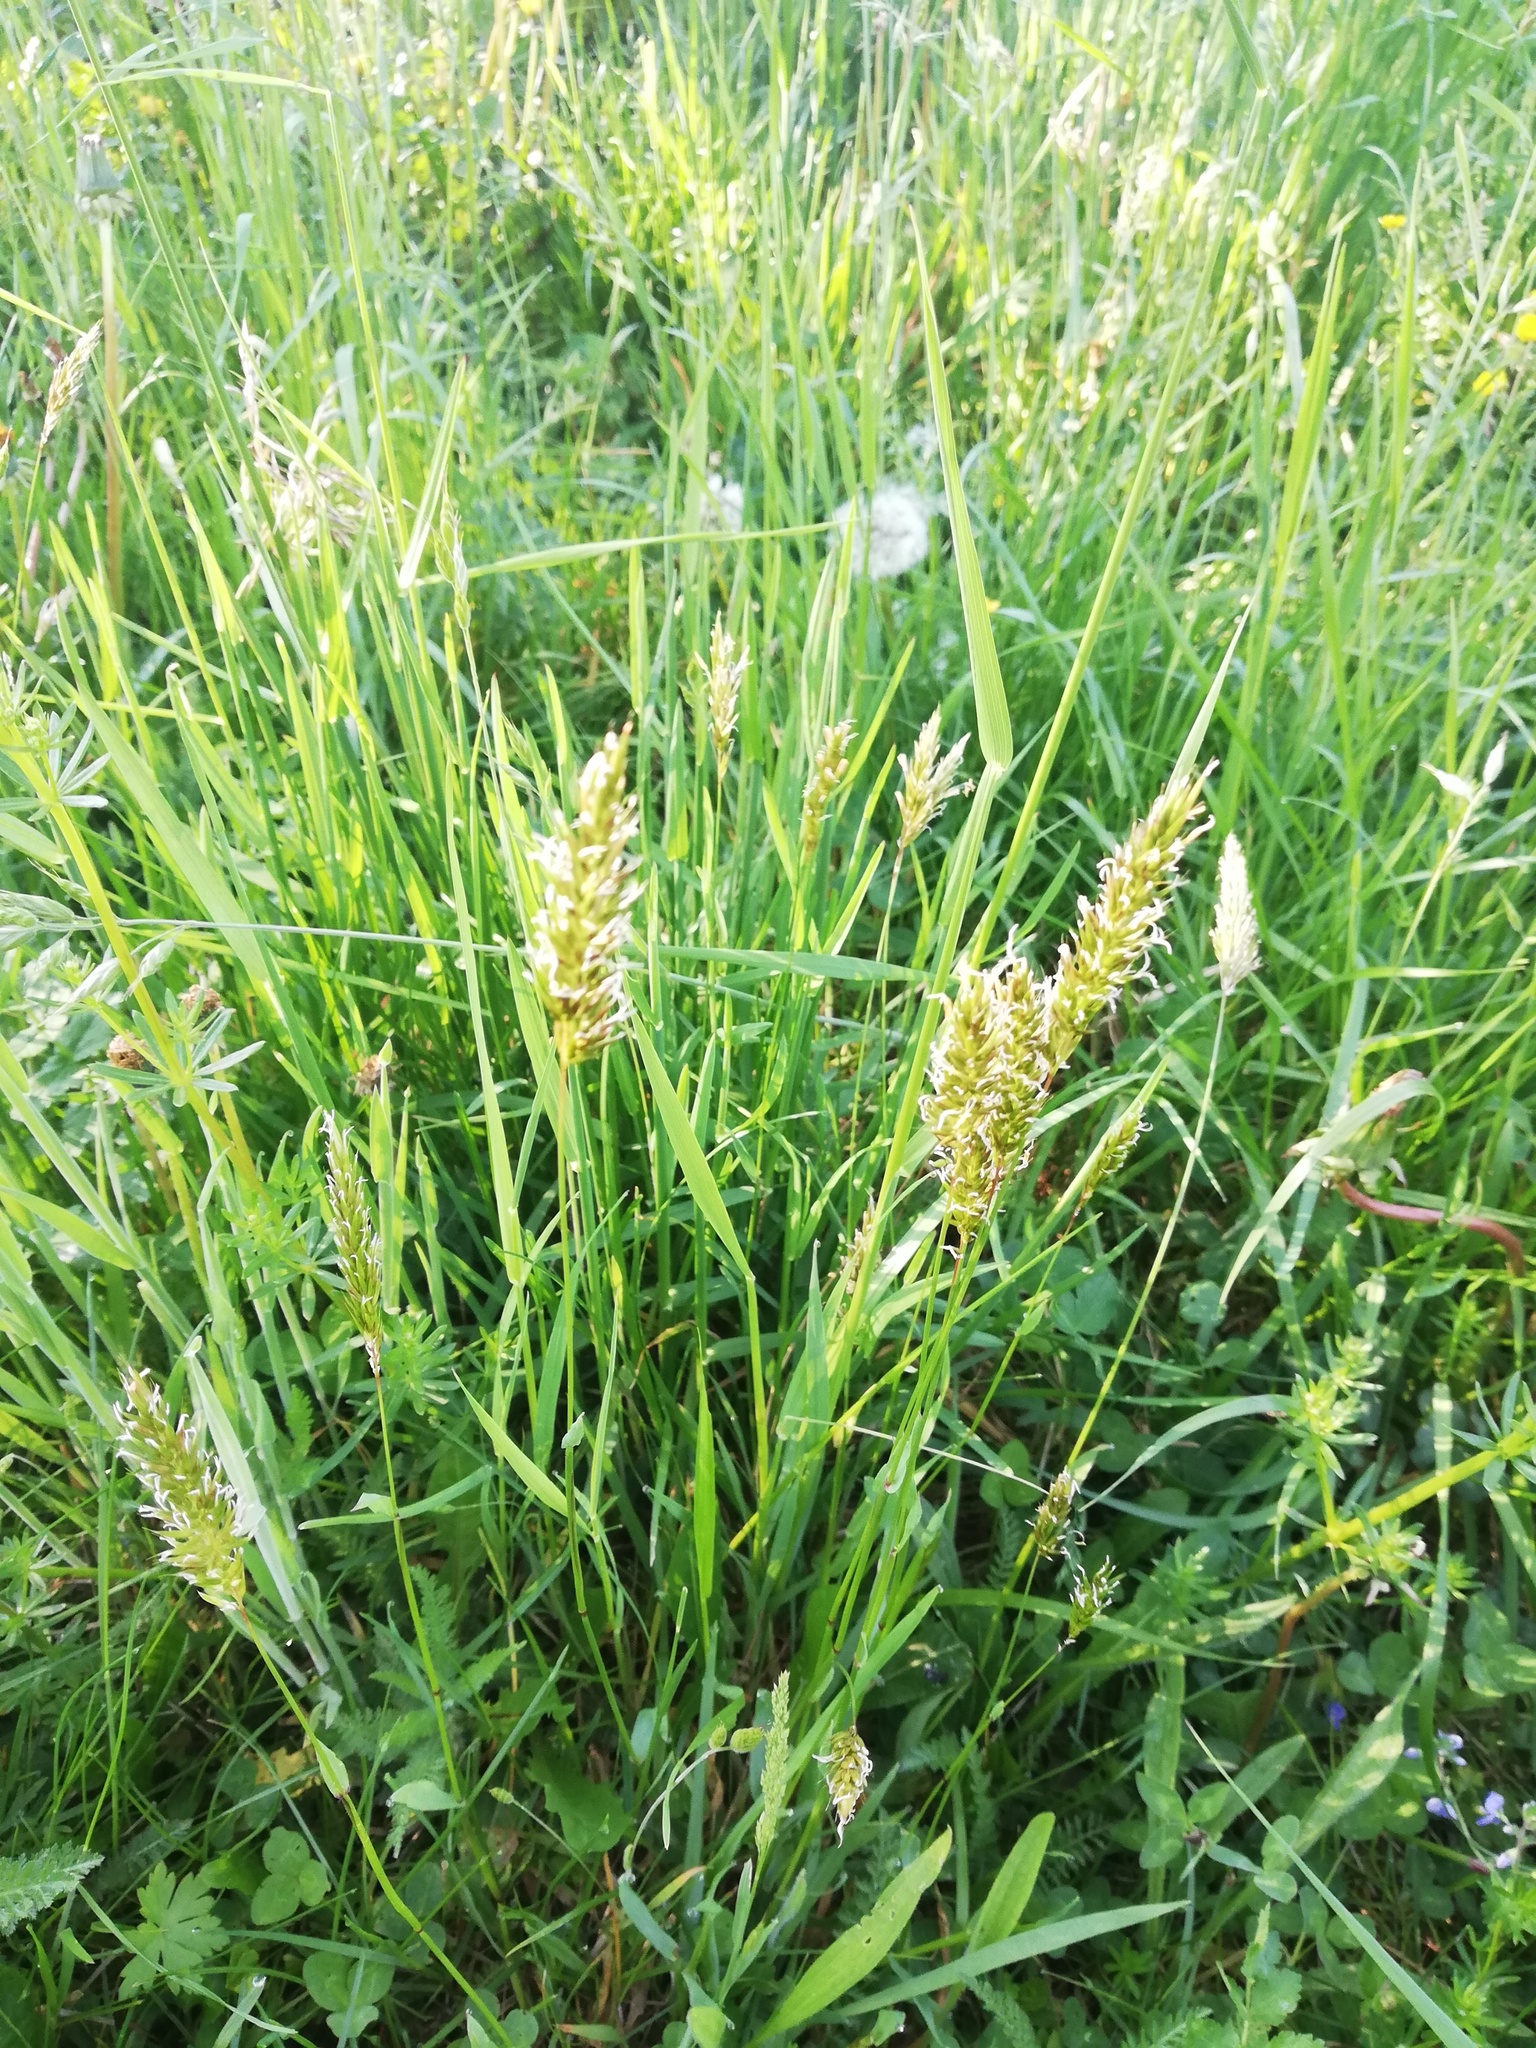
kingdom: Plantae
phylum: Tracheophyta
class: Liliopsida
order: Poales
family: Poaceae
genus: Anthoxanthum
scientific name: Anthoxanthum odoratum
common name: Sweet vernalgrass
